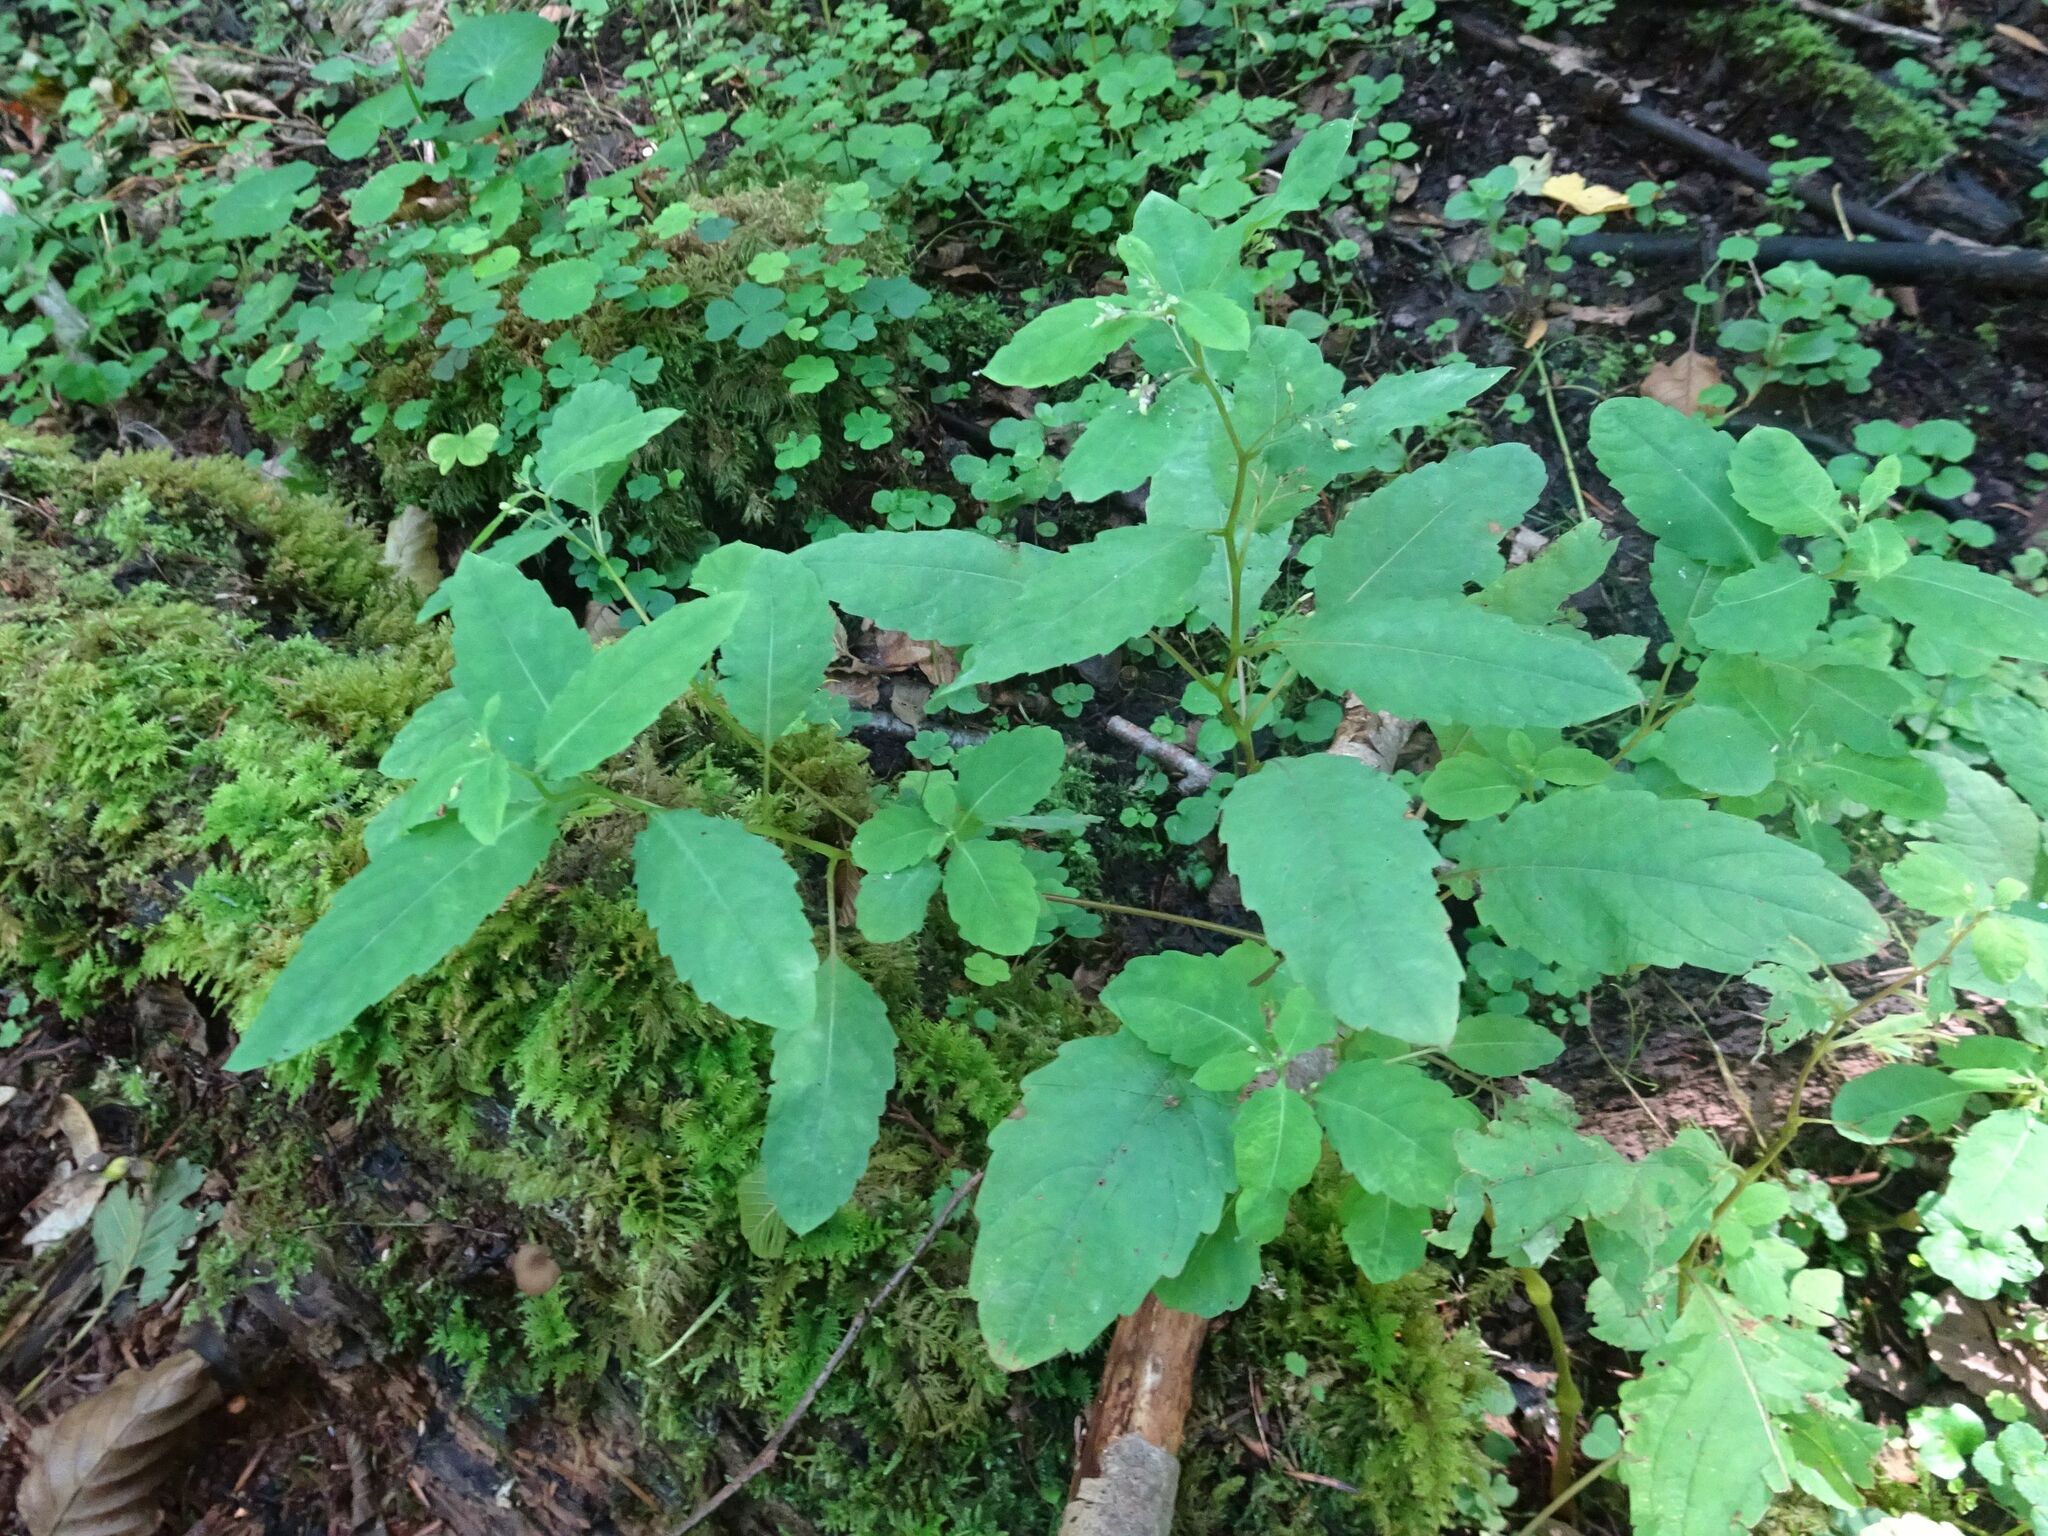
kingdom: Plantae
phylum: Tracheophyta
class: Magnoliopsida
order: Ericales
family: Balsaminaceae
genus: Impatiens
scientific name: Impatiens noli-tangere
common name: Touch-me-not balsam
